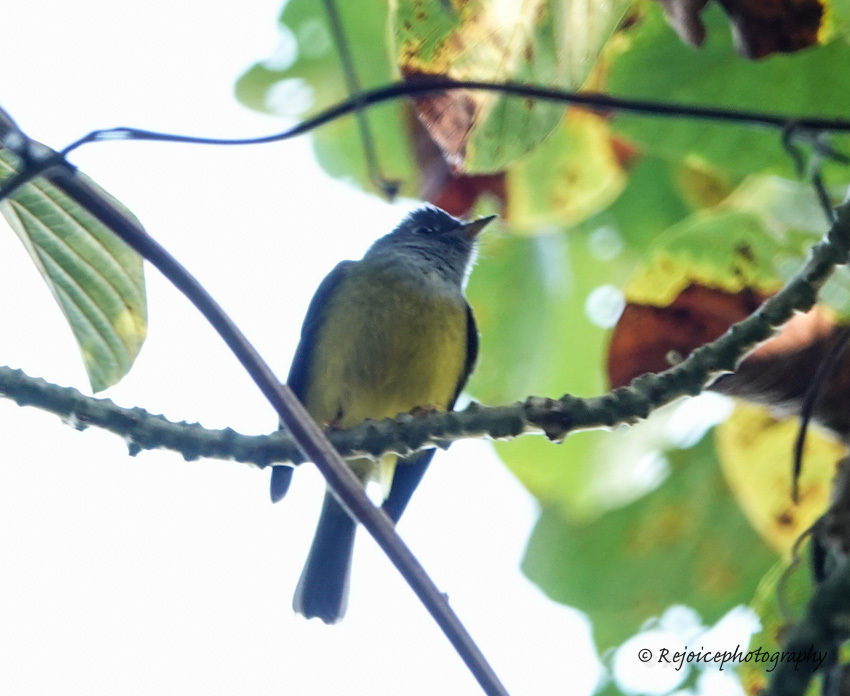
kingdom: Animalia
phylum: Chordata
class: Aves
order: Passeriformes
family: Stenostiridae
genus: Culicicapa
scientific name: Culicicapa ceylonensis
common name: Grey-headed canary-flycatcher
